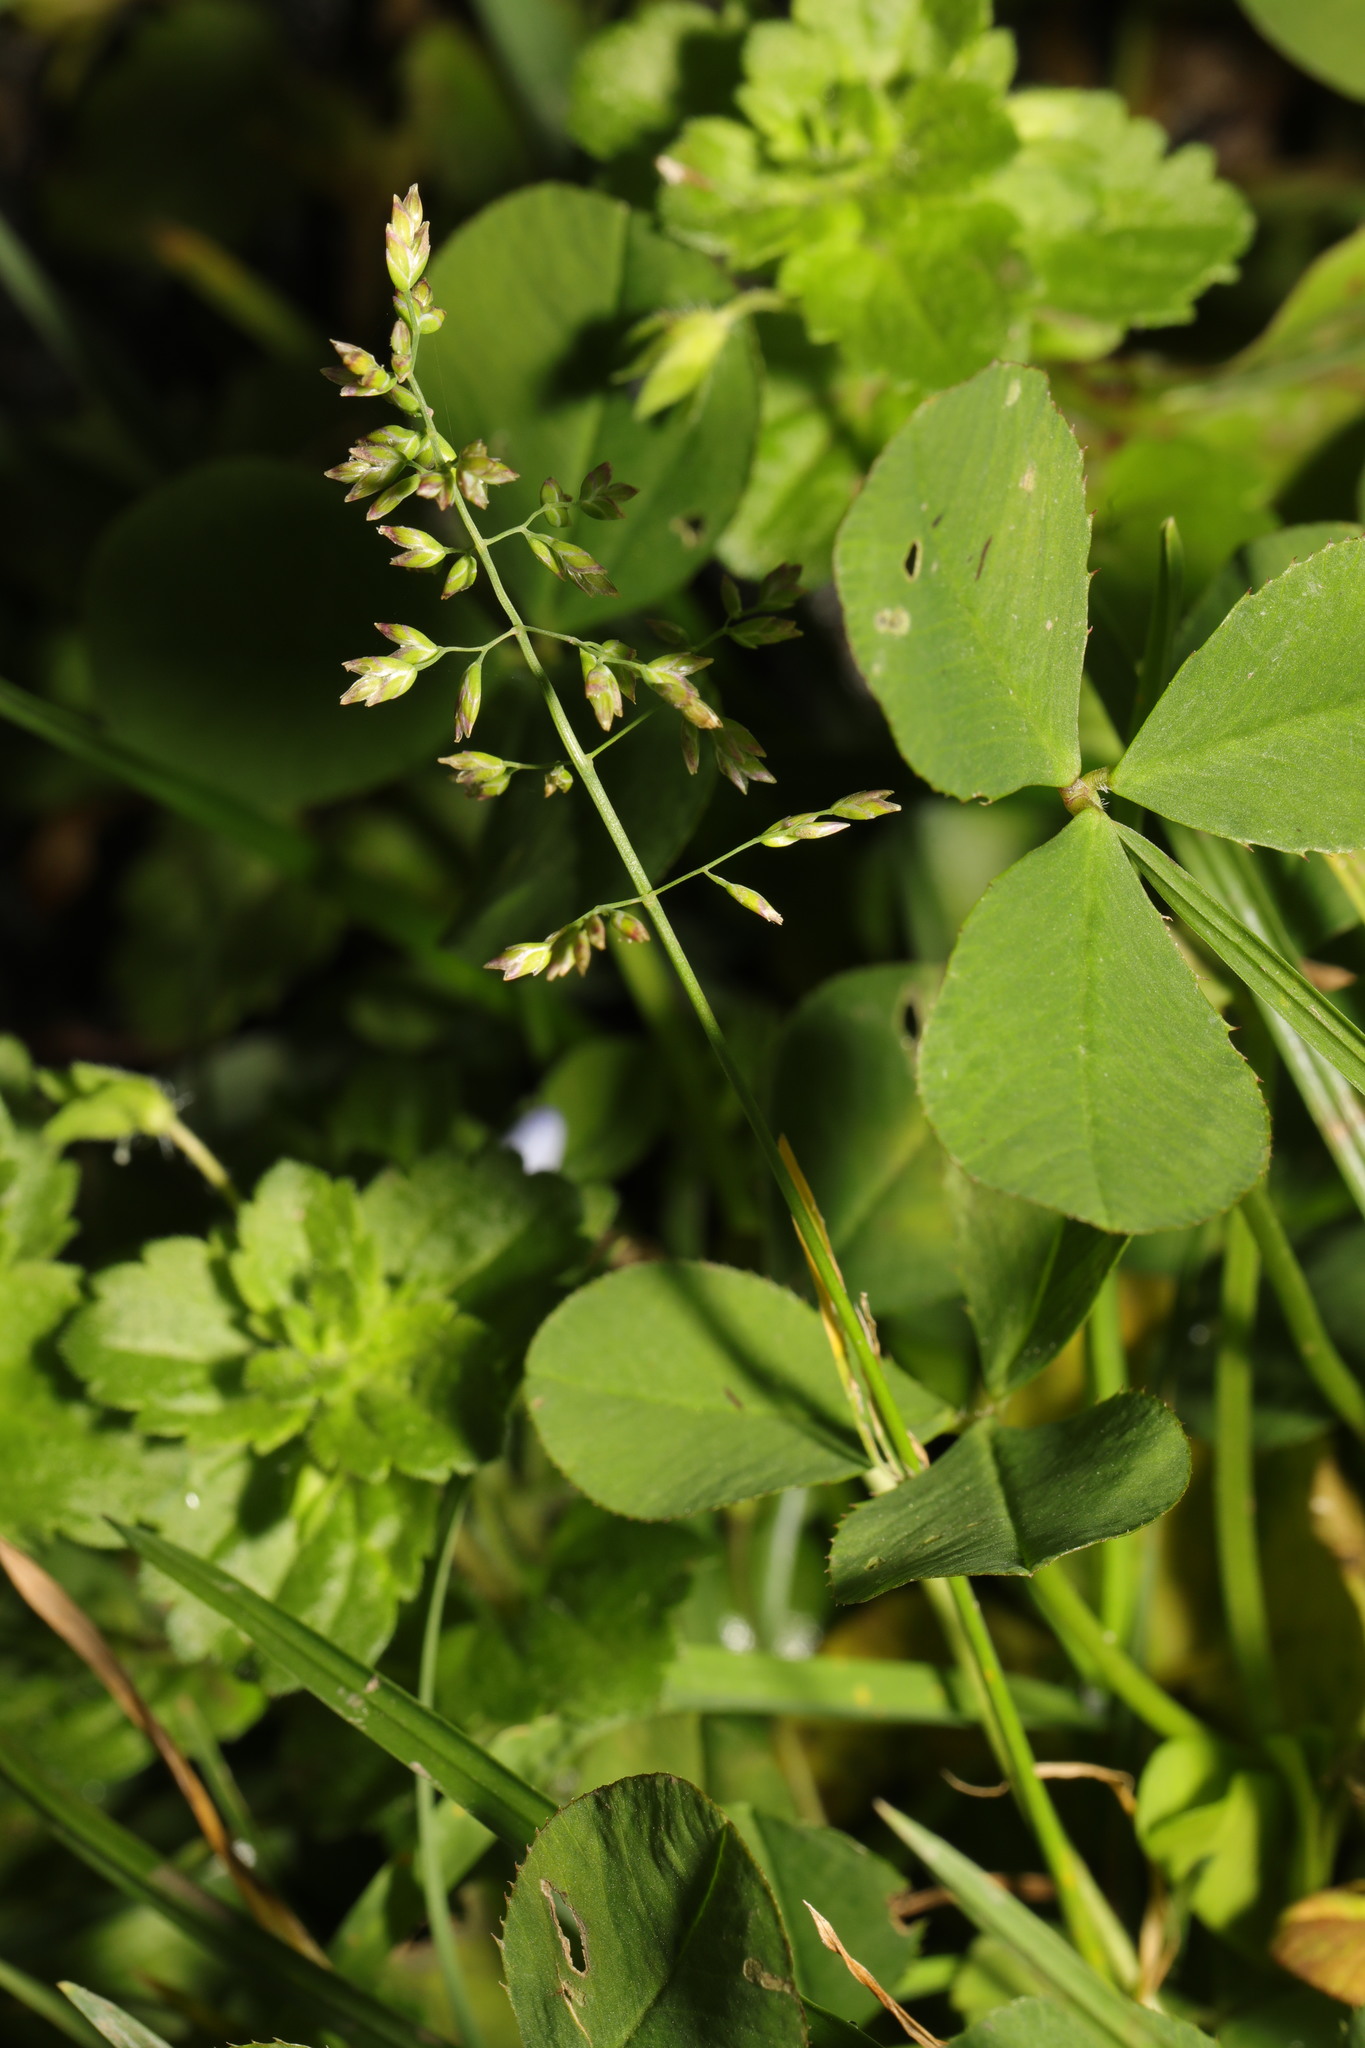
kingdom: Plantae
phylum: Tracheophyta
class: Liliopsida
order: Poales
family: Poaceae
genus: Poa
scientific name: Poa annua
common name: Annual bluegrass
